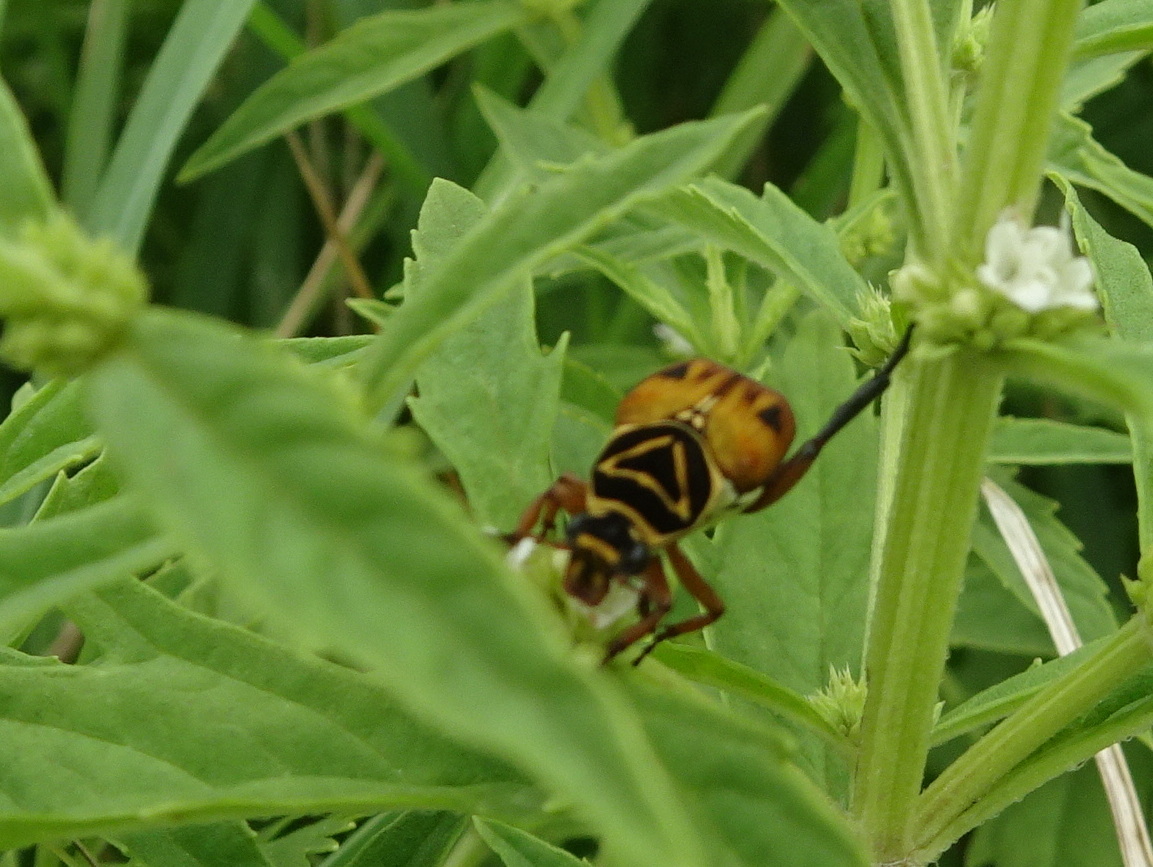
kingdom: Animalia
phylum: Arthropoda
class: Insecta
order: Coleoptera
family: Scarabaeidae
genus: Trigonopeltastes
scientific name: Trigonopeltastes delta
